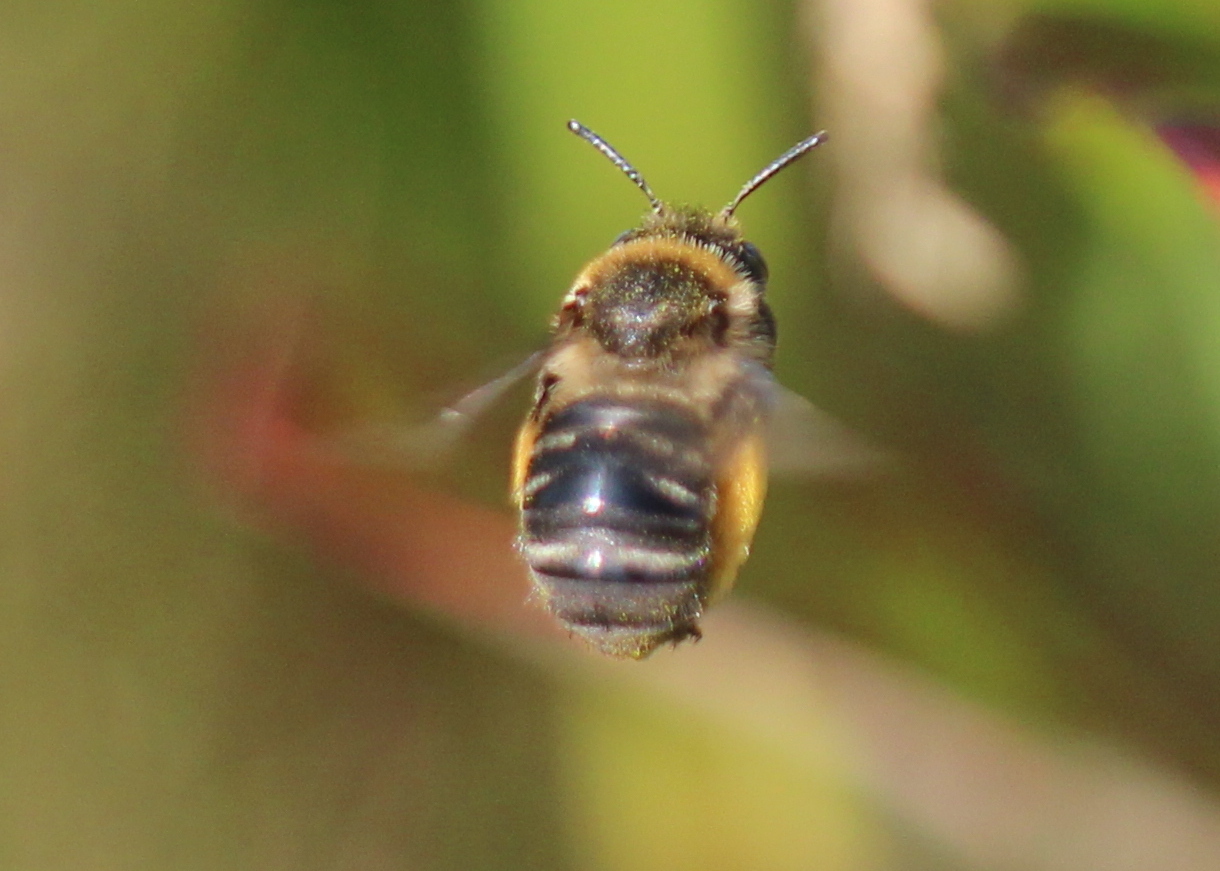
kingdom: Animalia
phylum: Arthropoda
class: Insecta
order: Hymenoptera
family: Apidae
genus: Melissodes
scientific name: Melissodes druriellus
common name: Drury's long-horned bee
